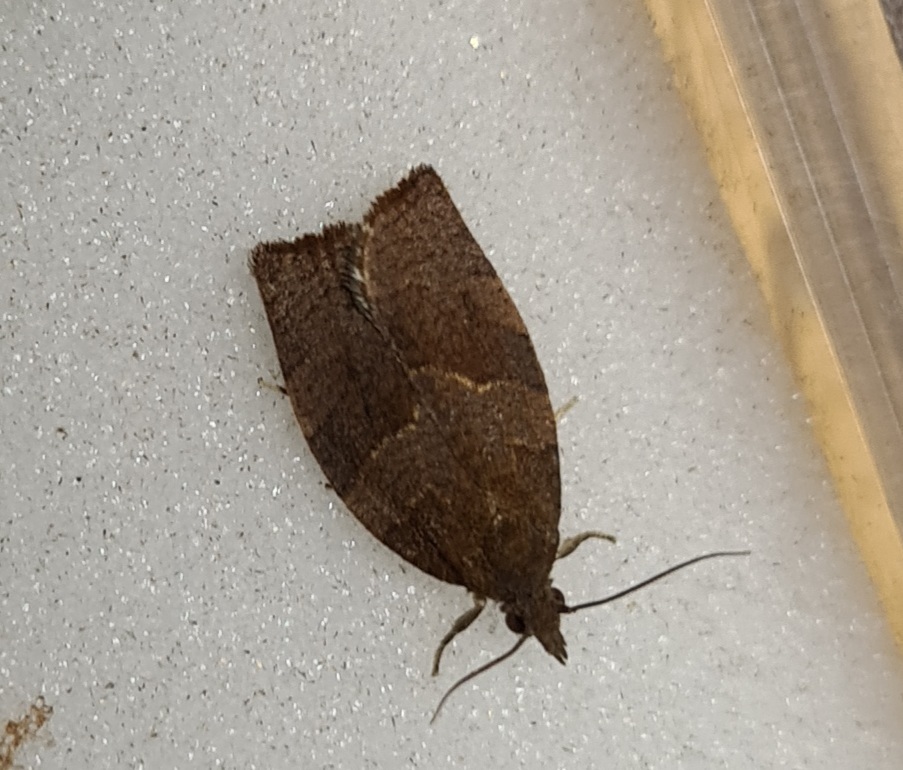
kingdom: Animalia
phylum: Arthropoda
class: Insecta
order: Lepidoptera
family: Tortricidae
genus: Pandemis
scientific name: Pandemis heparana
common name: Dark fruit-tree tortrix
